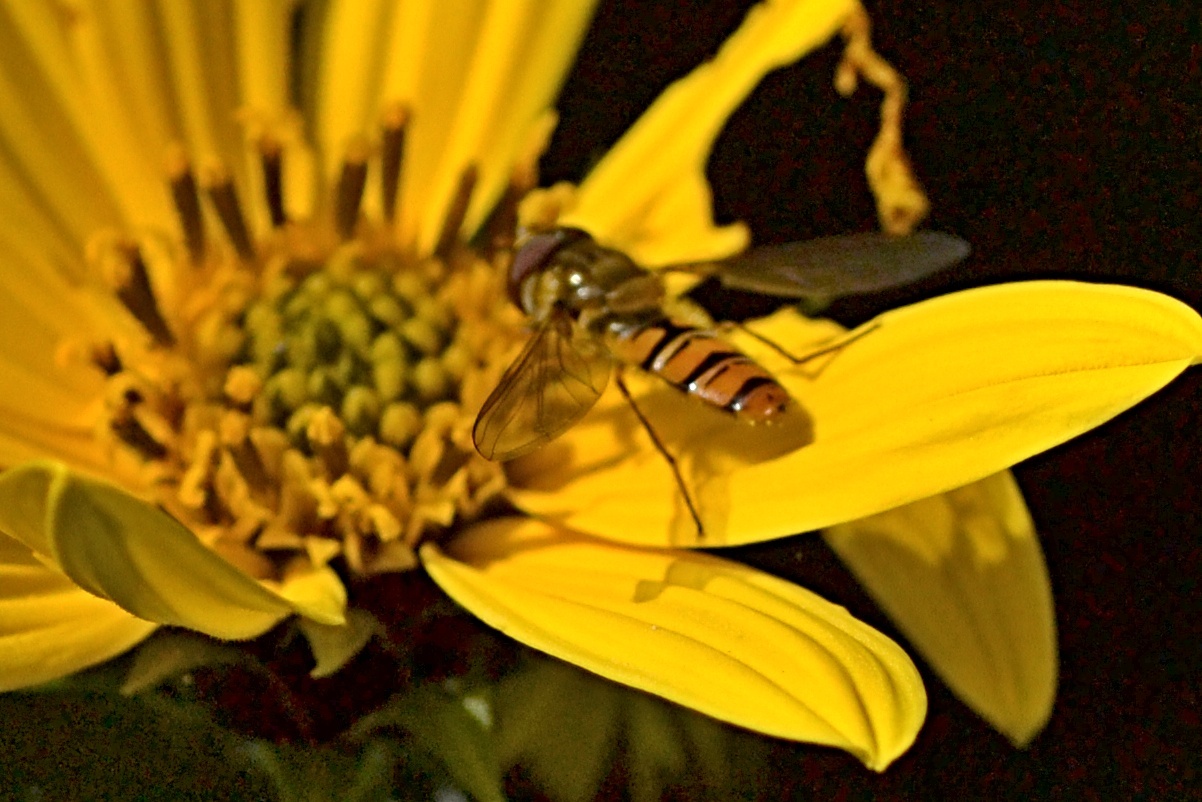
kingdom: Animalia
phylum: Arthropoda
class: Insecta
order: Diptera
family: Syrphidae
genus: Episyrphus
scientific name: Episyrphus balteatus
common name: Marmalade hoverfly
